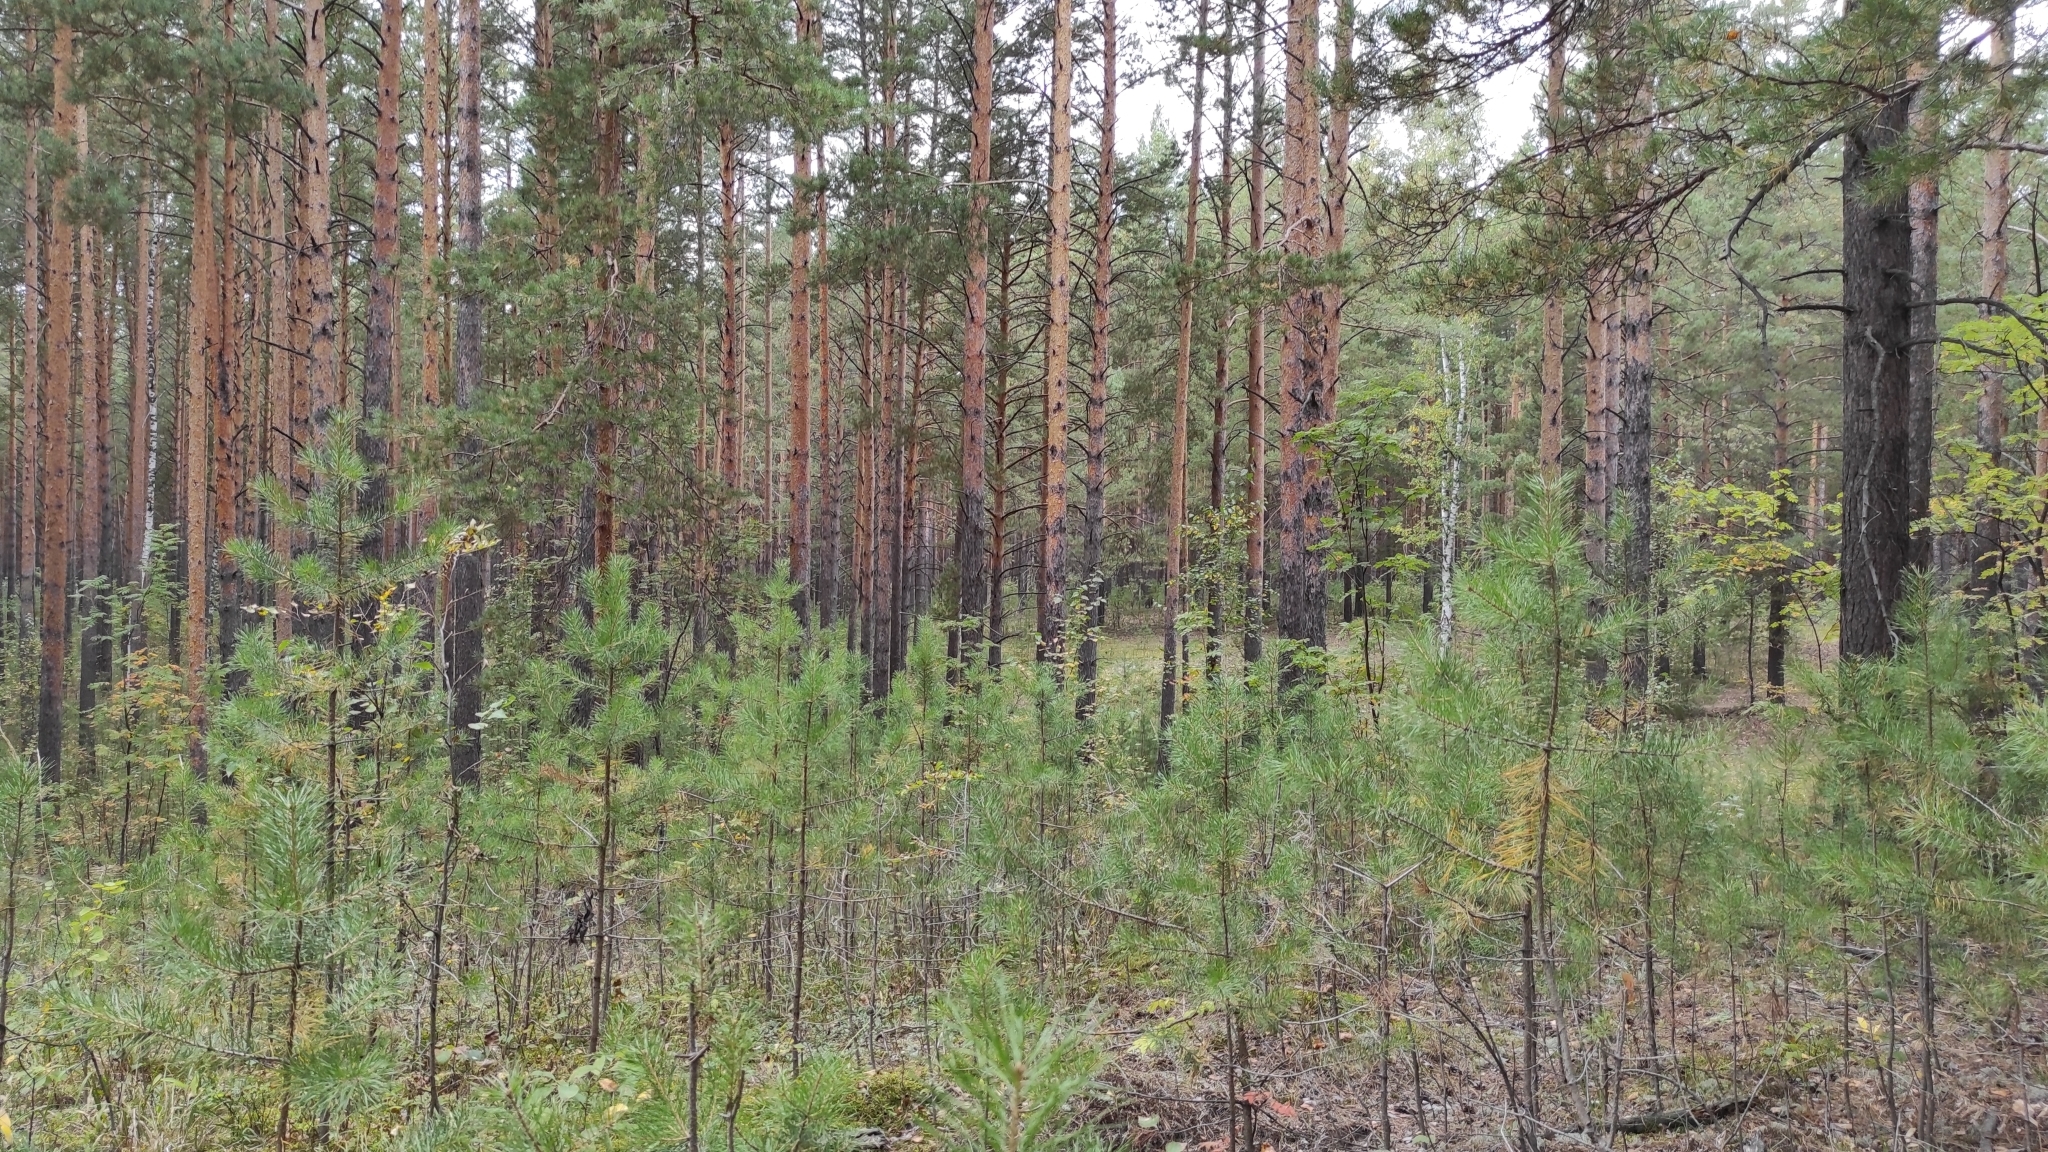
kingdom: Plantae
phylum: Tracheophyta
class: Pinopsida
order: Pinales
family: Pinaceae
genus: Pinus
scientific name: Pinus sylvestris
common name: Scots pine
